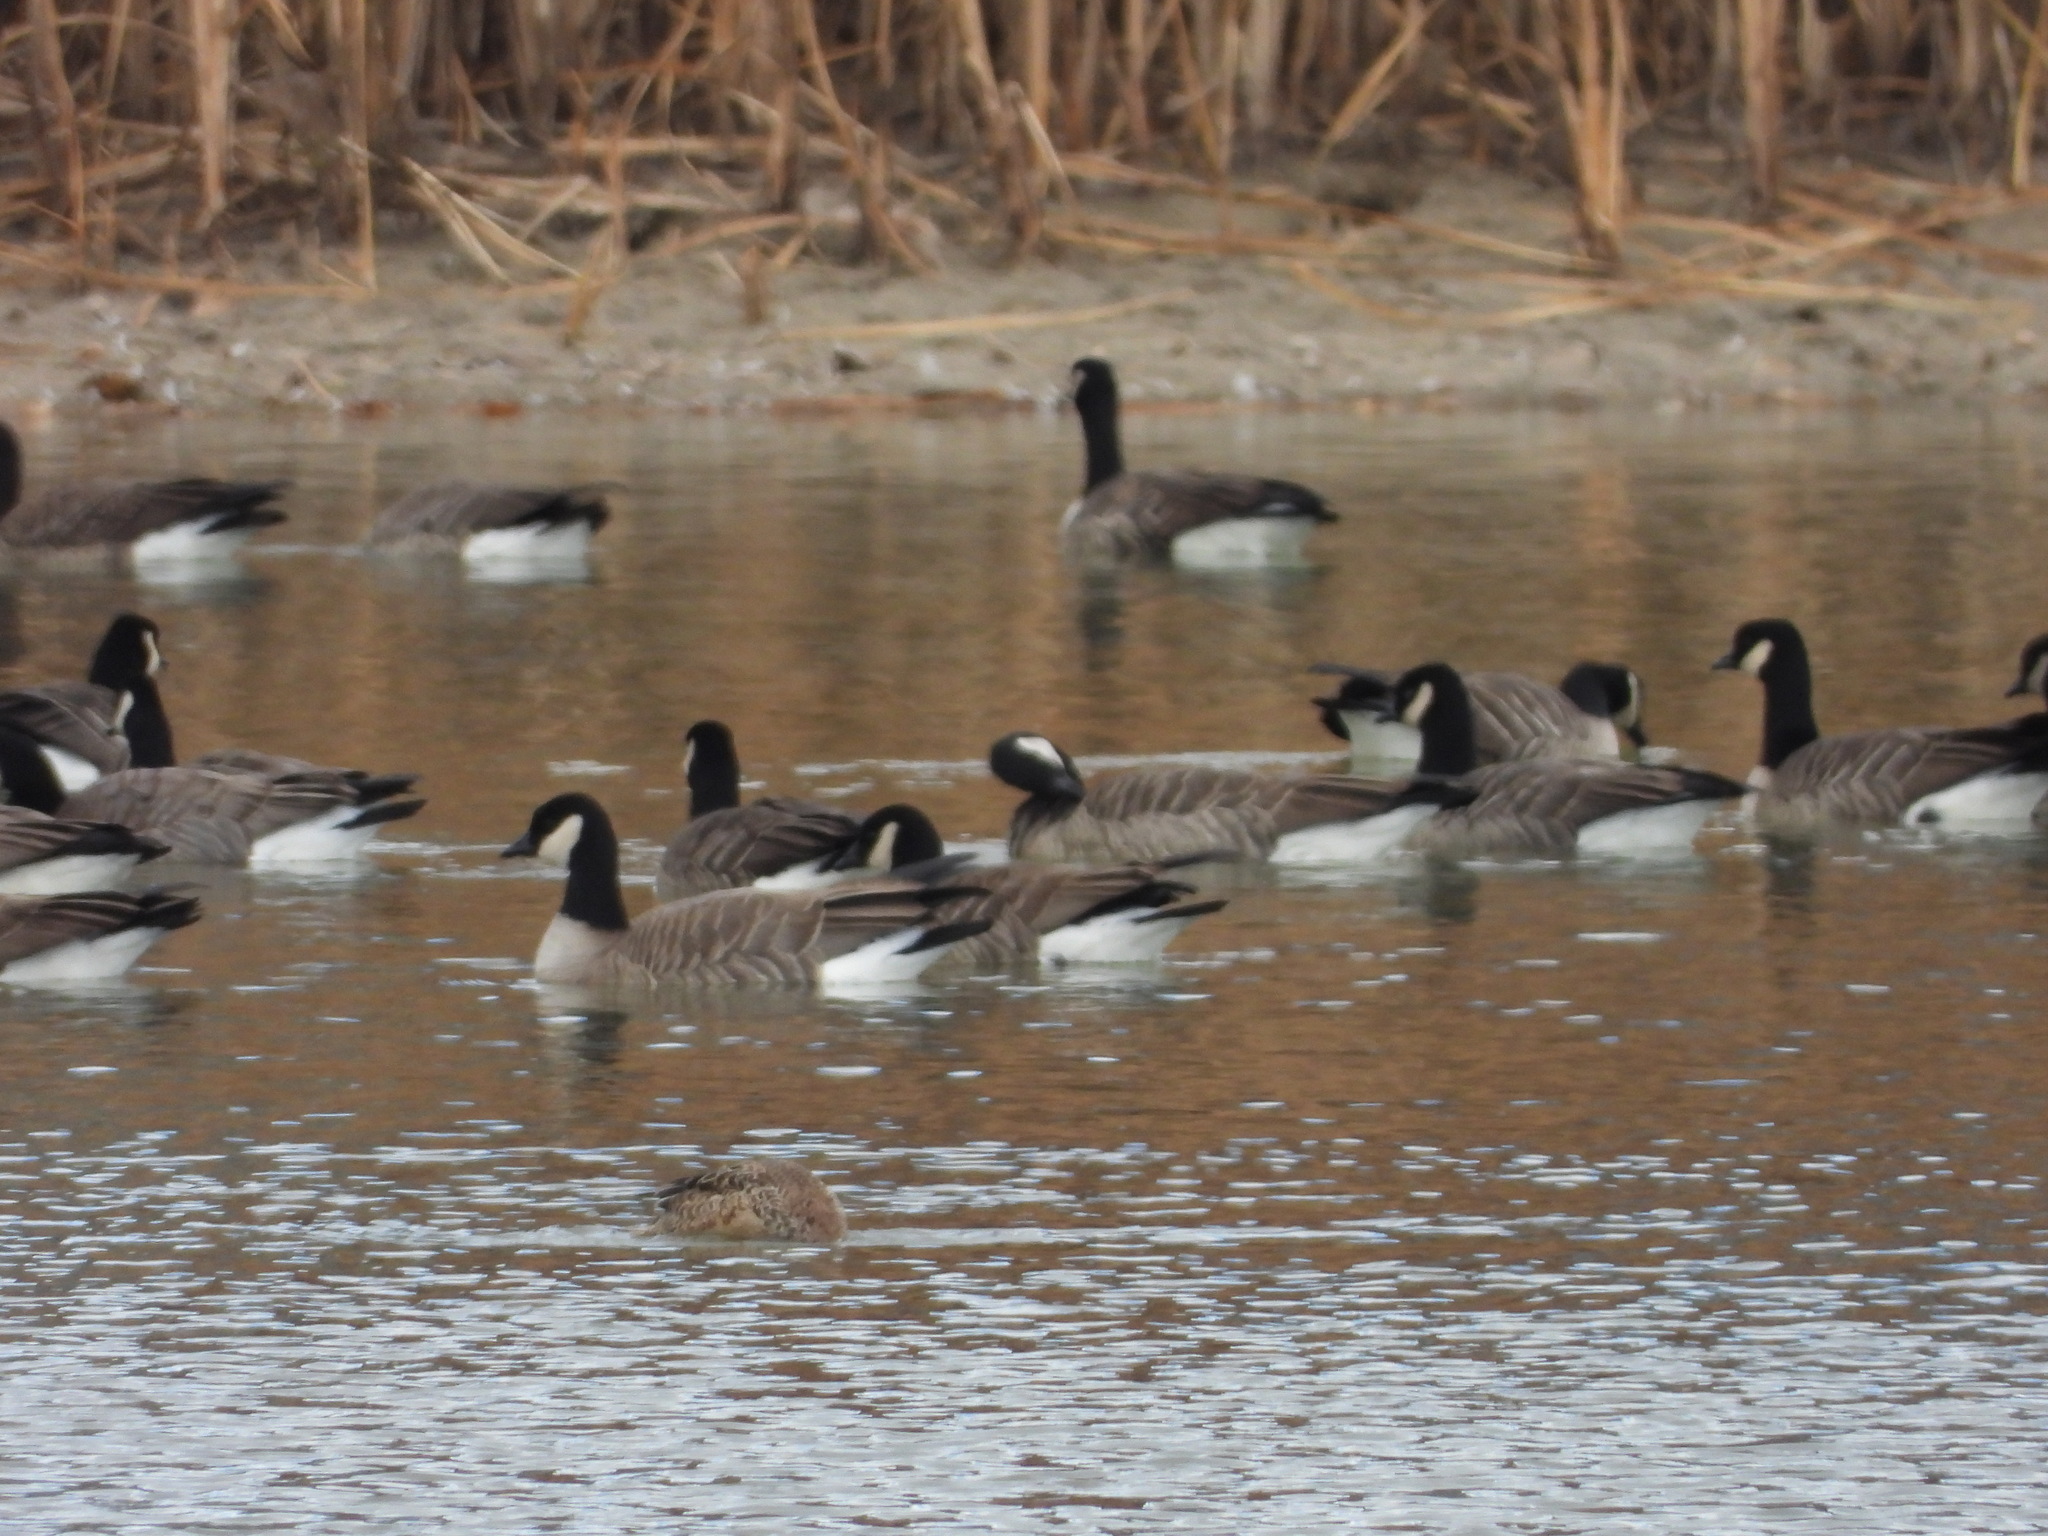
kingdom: Animalia
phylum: Chordata
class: Aves
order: Anseriformes
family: Anatidae
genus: Spatula
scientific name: Spatula clypeata
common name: Northern shoveler
